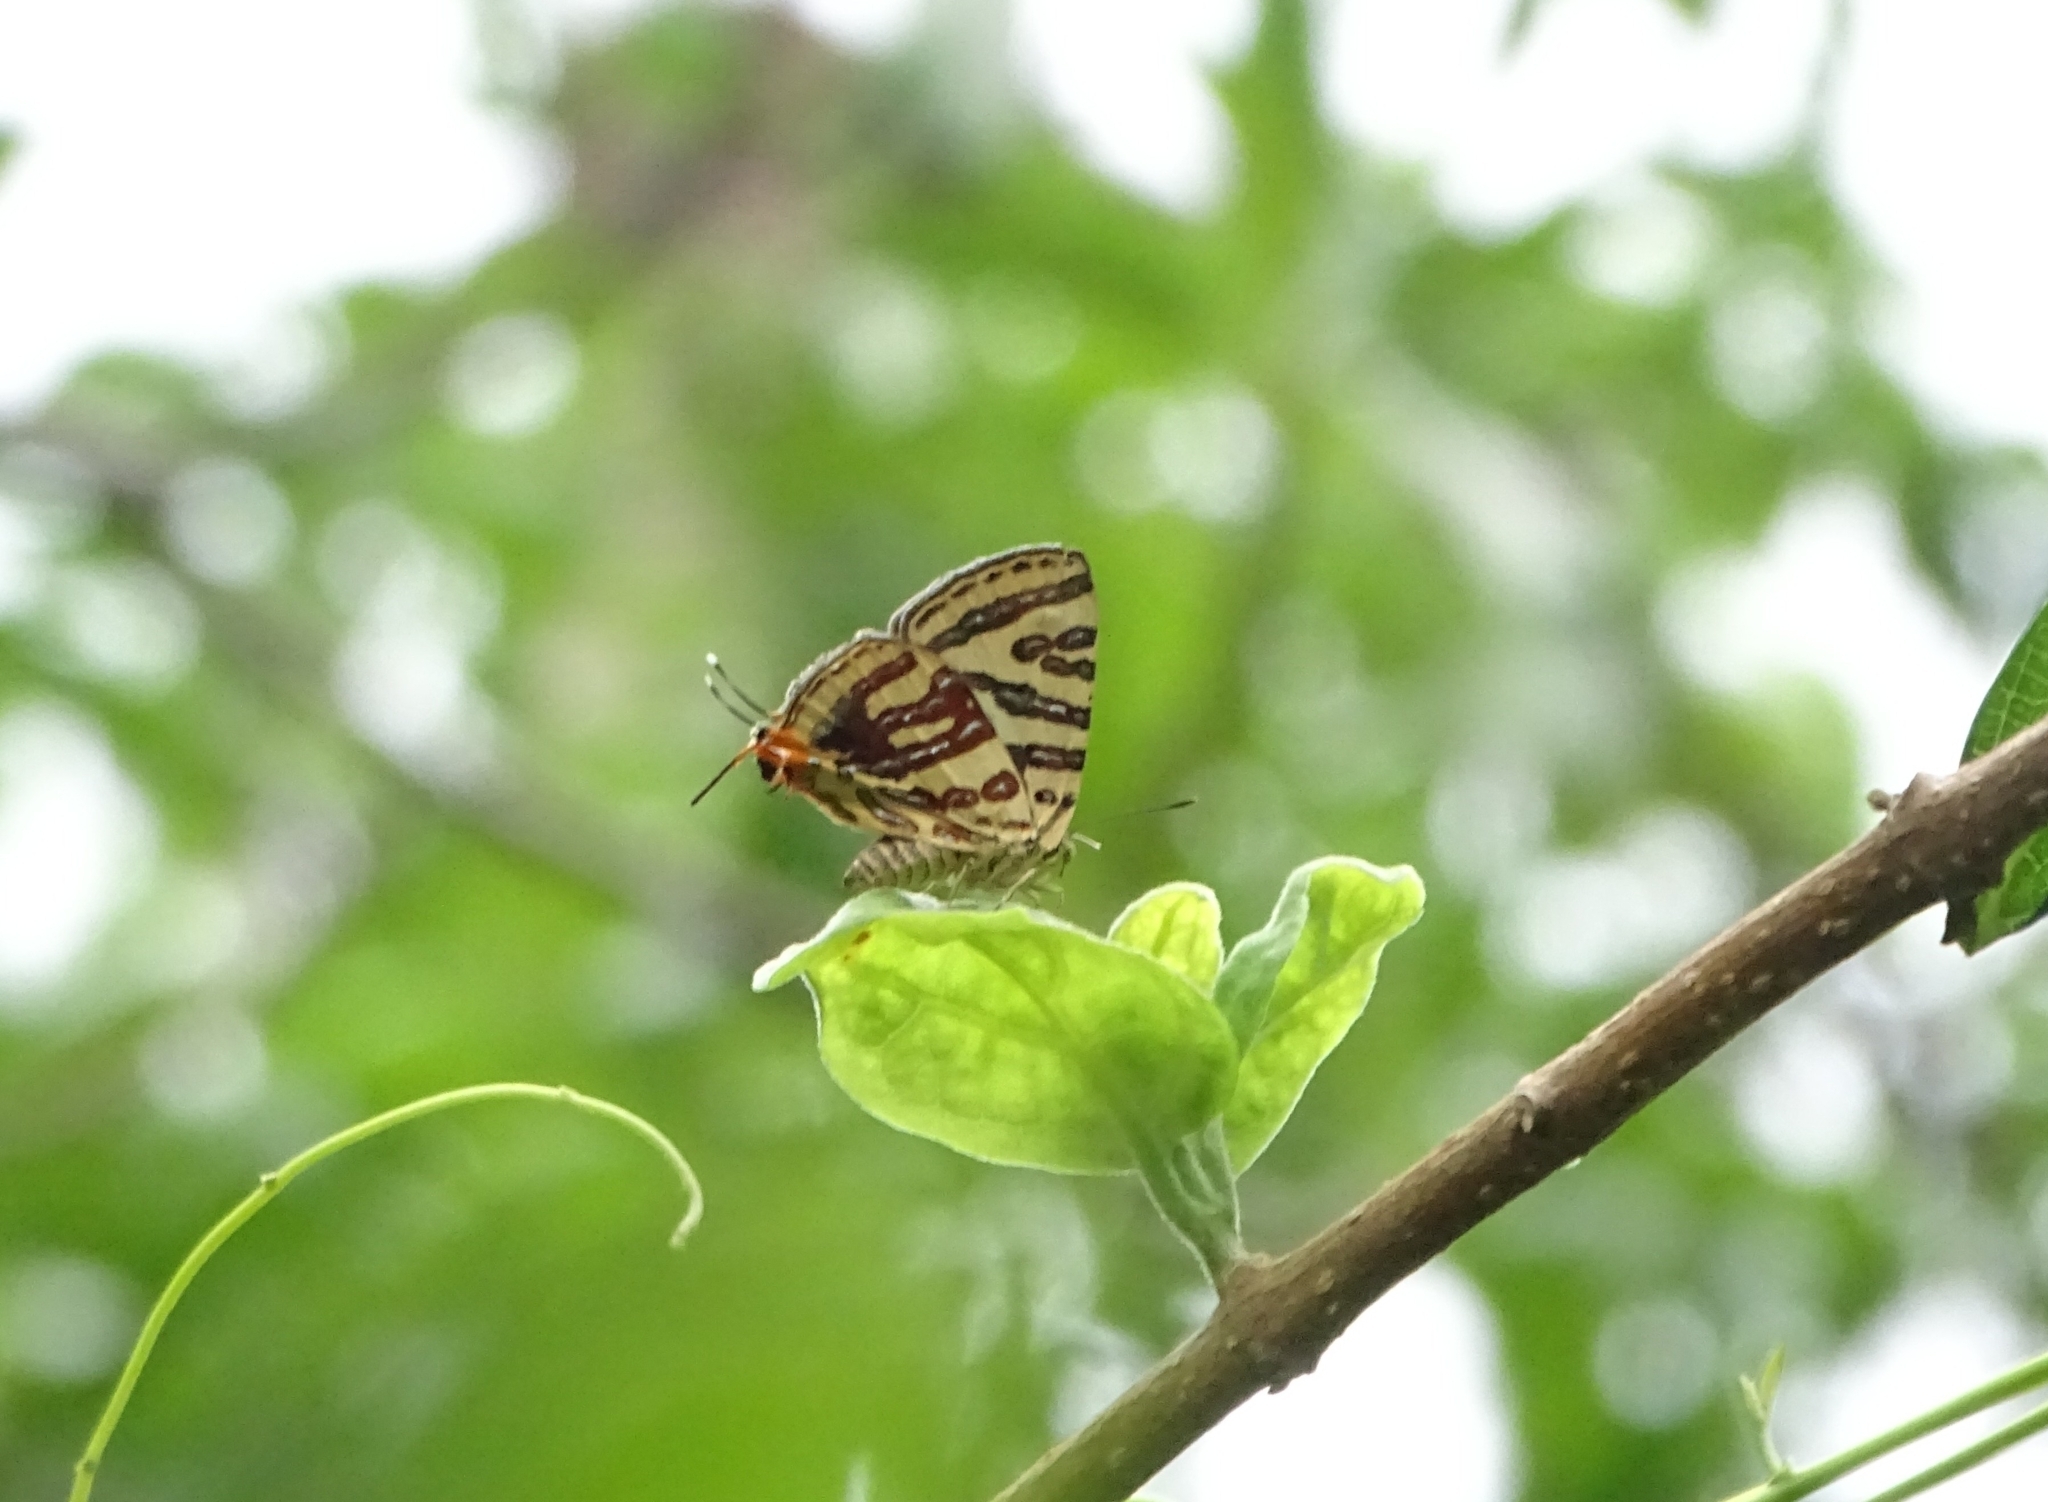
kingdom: Animalia
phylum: Arthropoda
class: Insecta
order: Lepidoptera
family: Lycaenidae
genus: Cigaritis
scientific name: Cigaritis lohita
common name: Long-banded silverline
